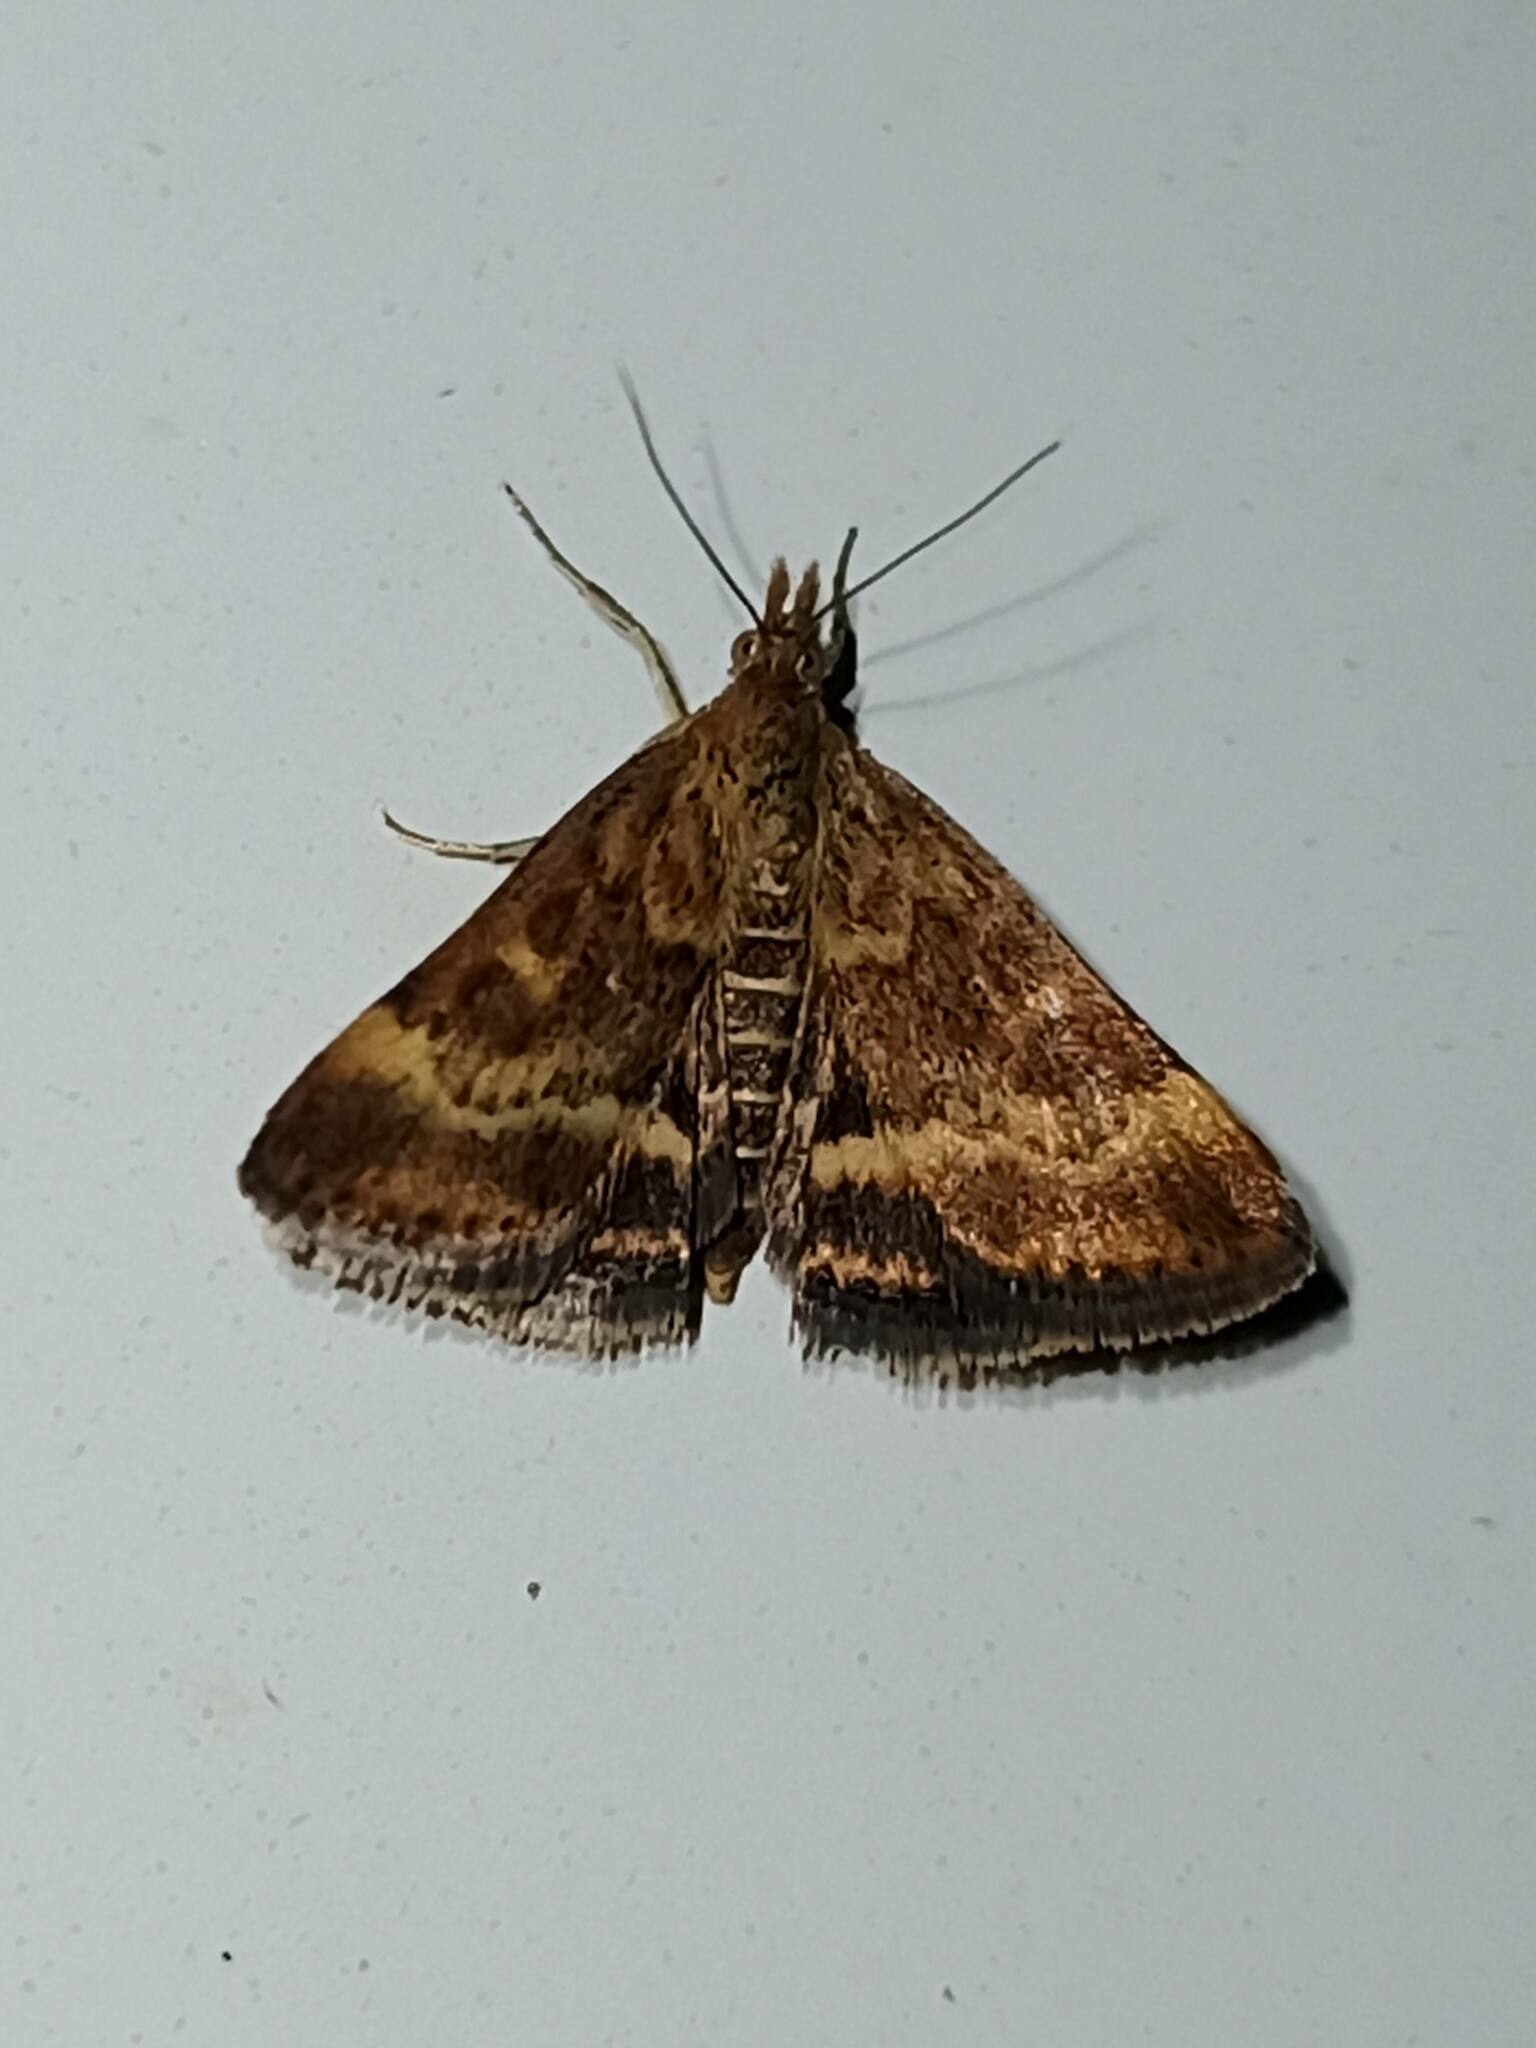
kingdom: Animalia
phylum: Arthropoda
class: Insecta
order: Lepidoptera
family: Crambidae
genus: Pyrausta
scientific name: Pyrausta despicata
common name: Straw-barred pearl
